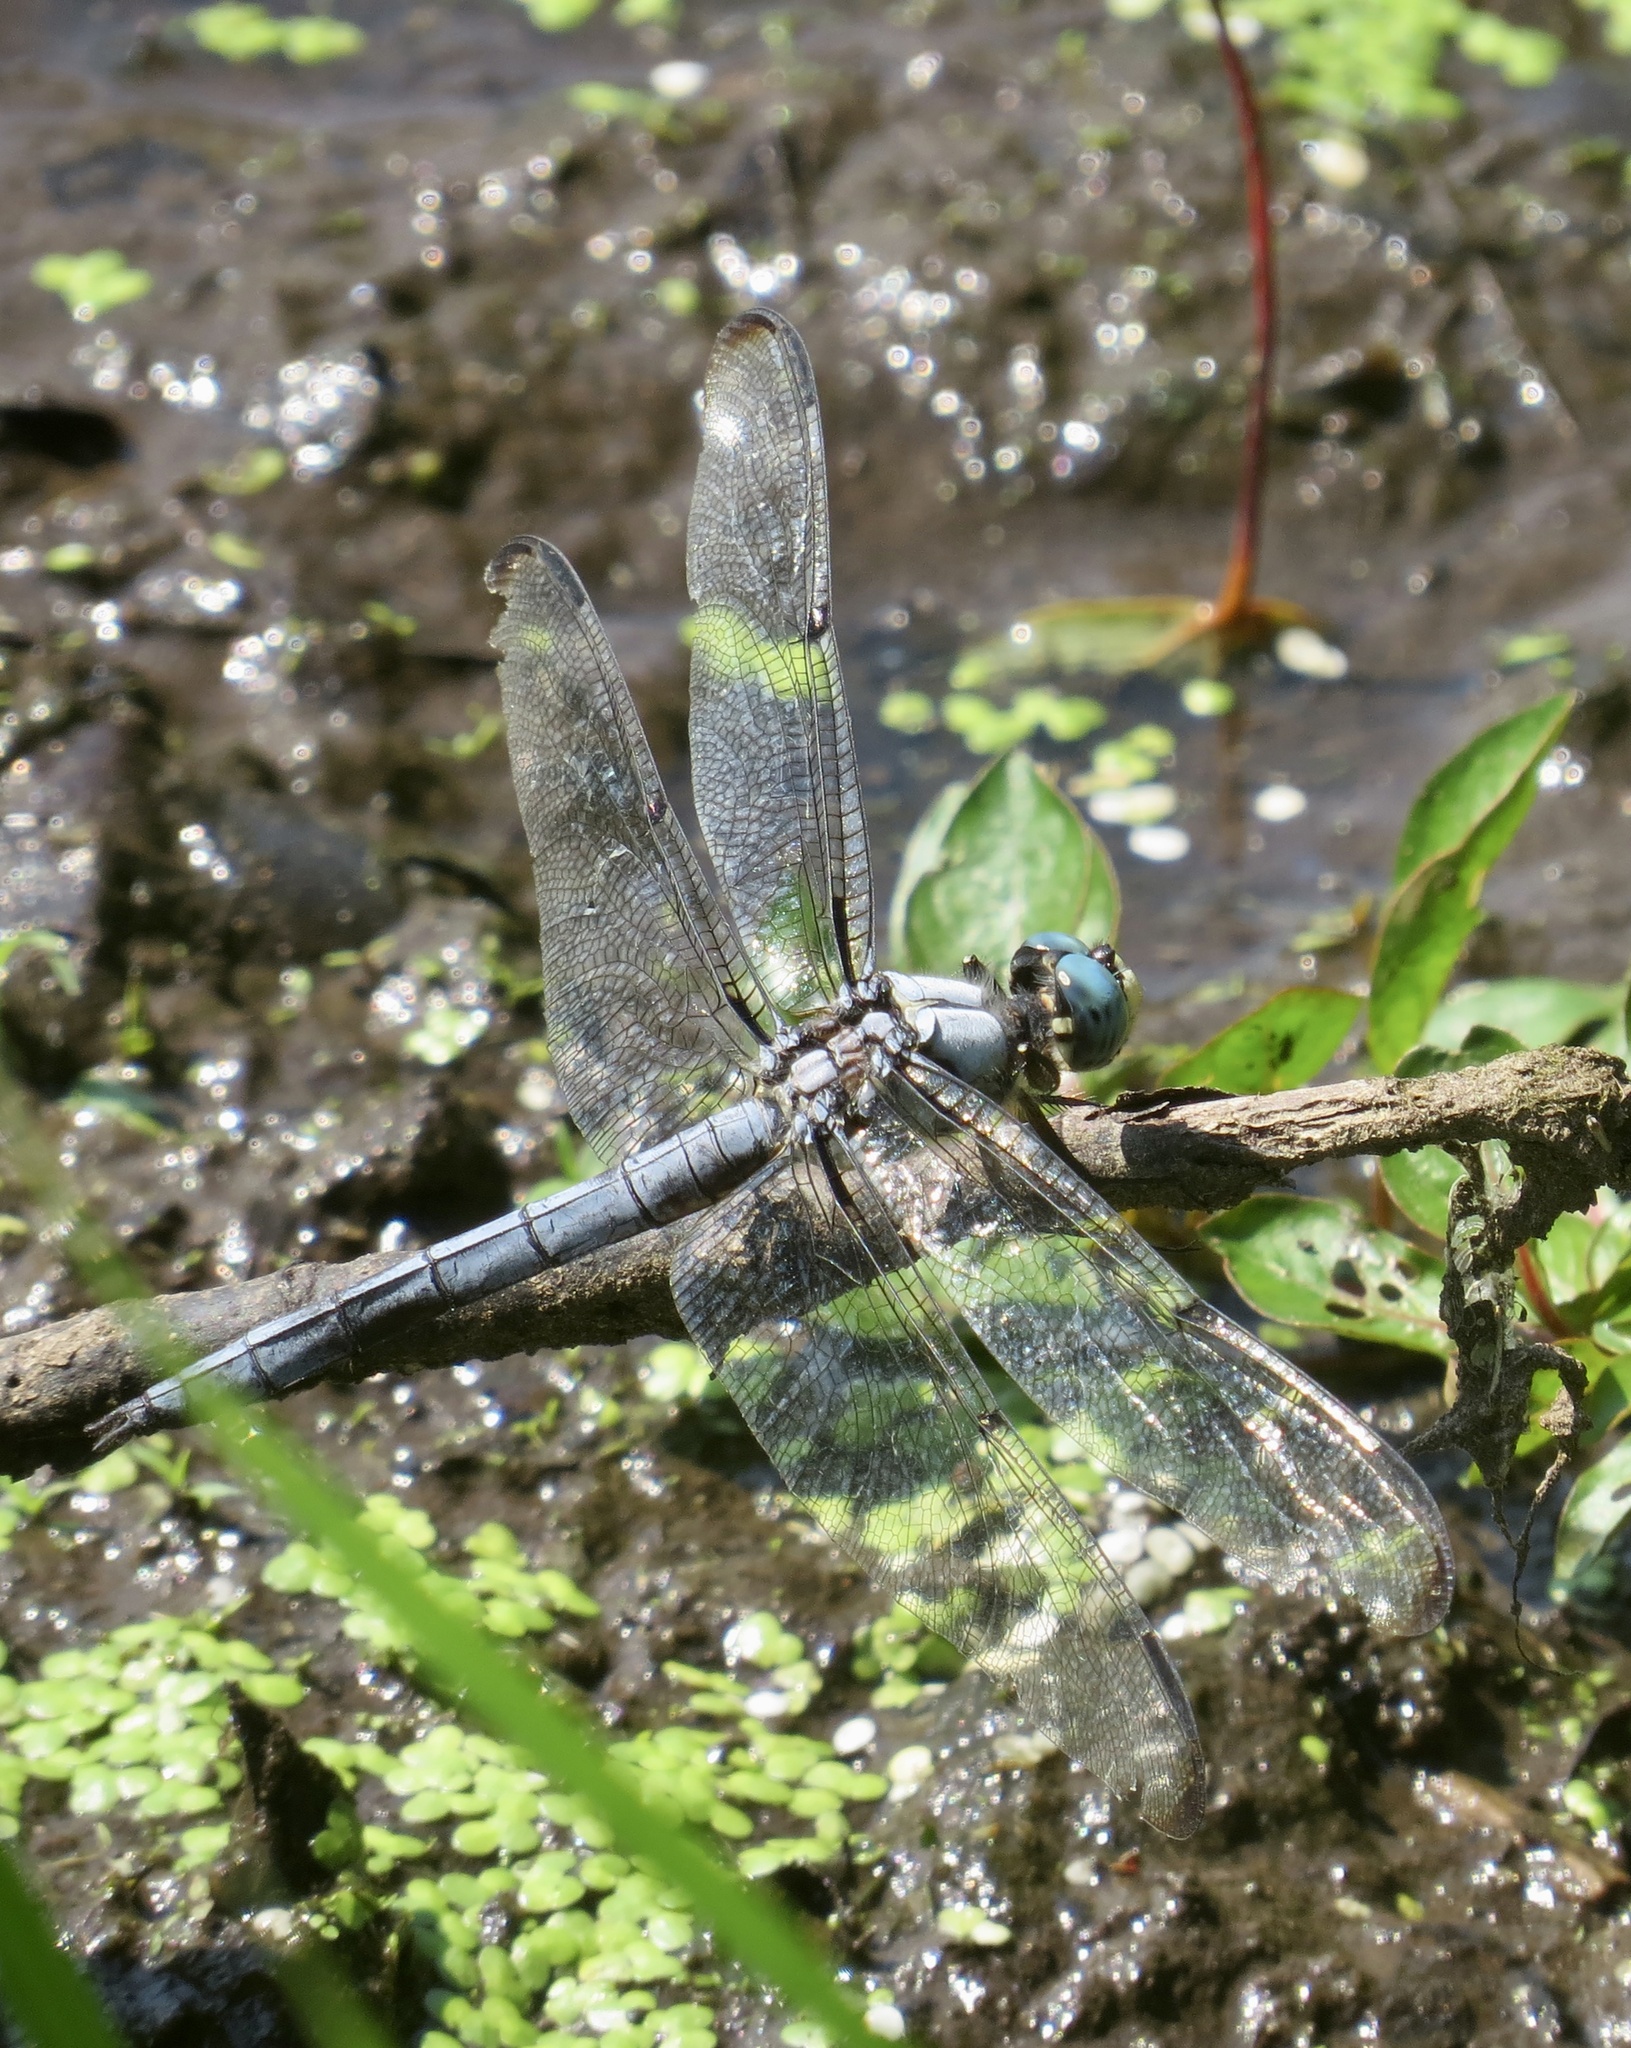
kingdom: Animalia
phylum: Arthropoda
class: Insecta
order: Odonata
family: Libellulidae
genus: Libellula
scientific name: Libellula vibrans
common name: Great blue skimmer
